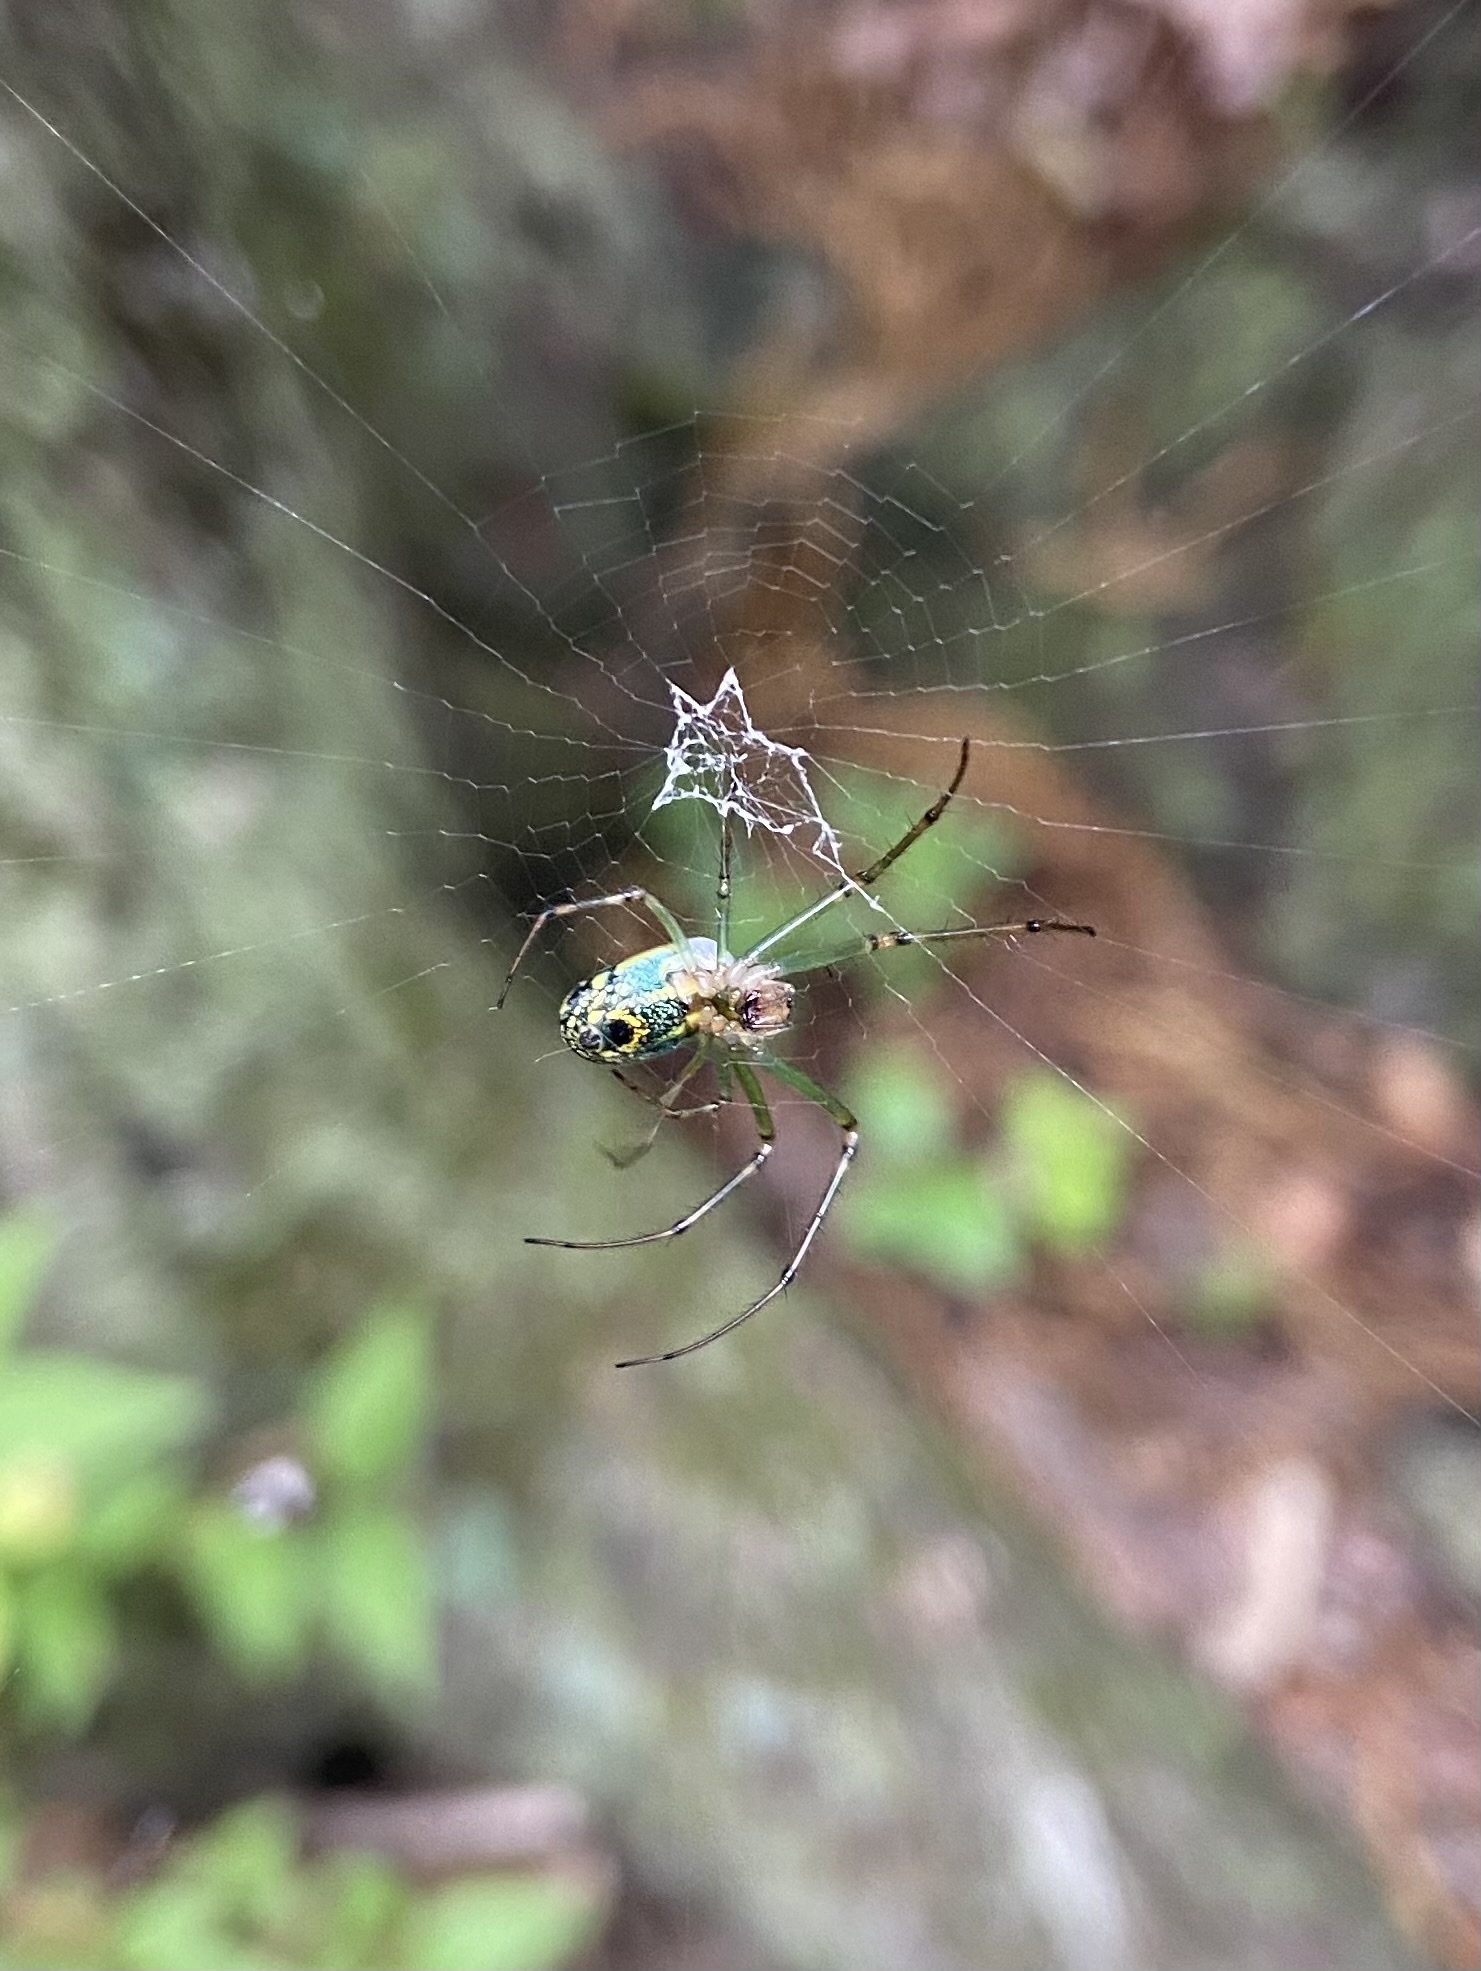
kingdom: Animalia
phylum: Arthropoda
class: Arachnida
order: Araneae
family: Tetragnathidae
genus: Leucauge
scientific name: Leucauge venusta
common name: Longjawed orb weavers
